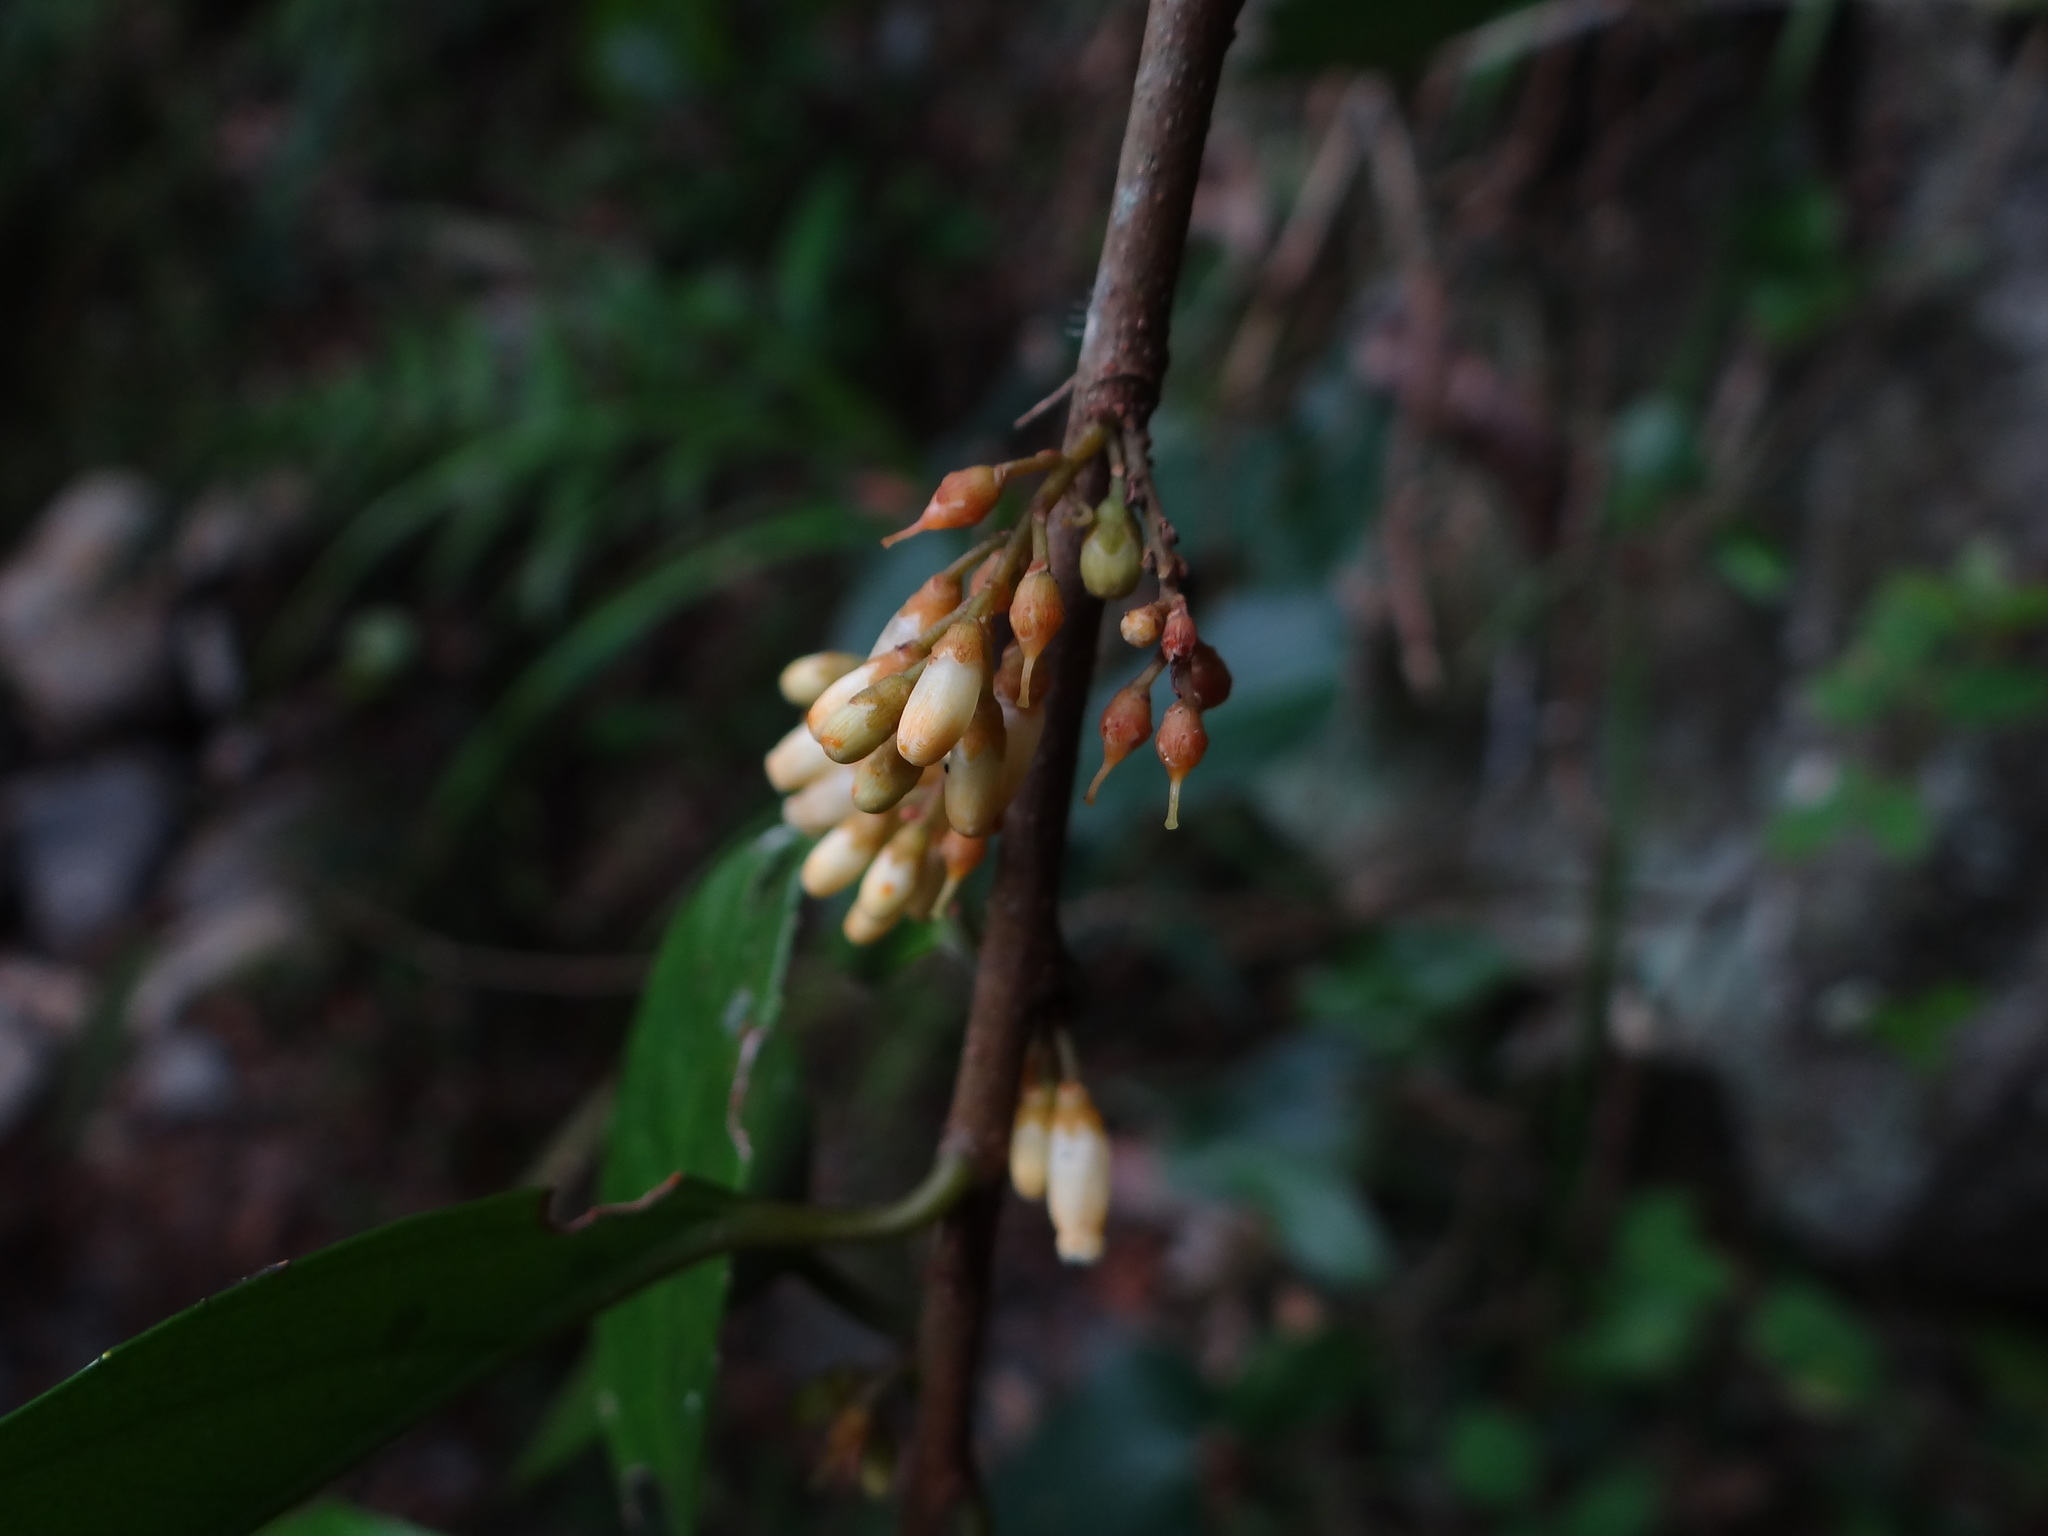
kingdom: Plantae
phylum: Tracheophyta
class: Magnoliopsida
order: Ericales
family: Primulaceae
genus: Maesa
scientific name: Maesa japonica
